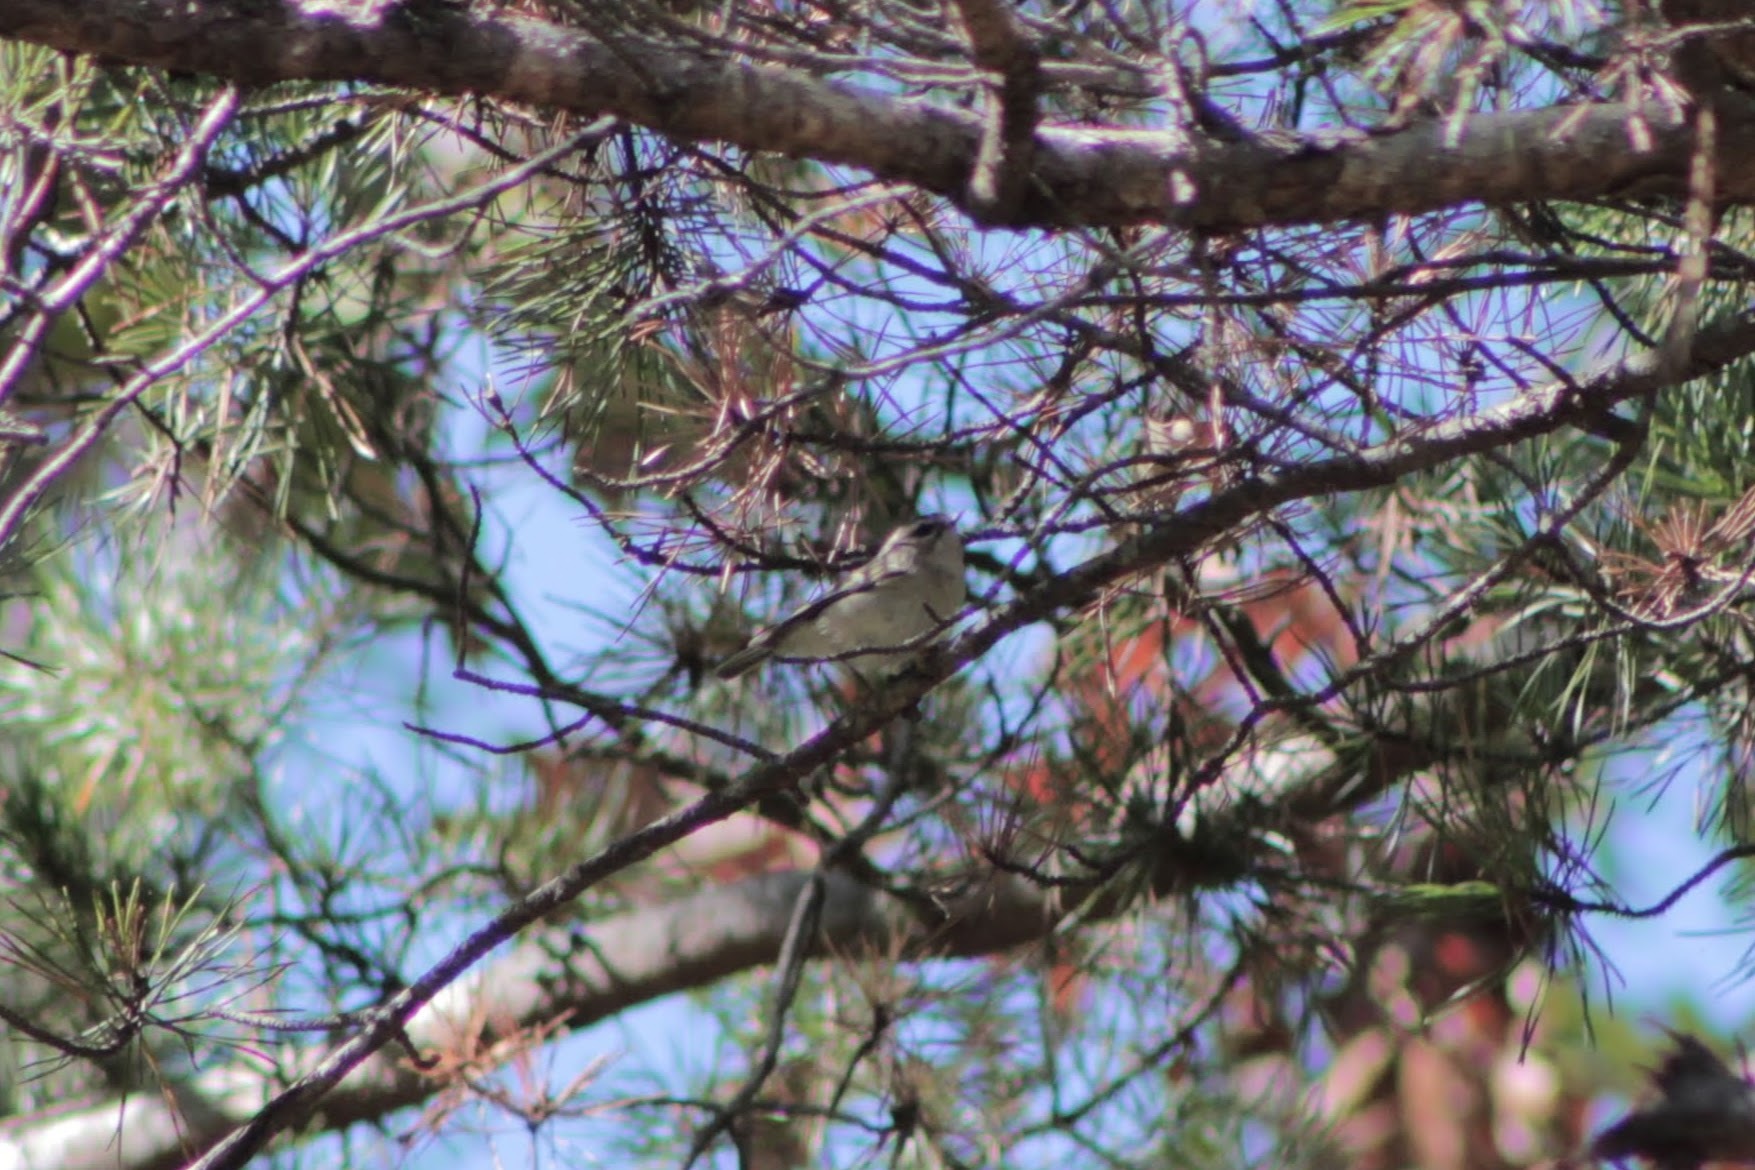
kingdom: Animalia
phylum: Chordata
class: Aves
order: Passeriformes
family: Regulidae
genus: Regulus
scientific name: Regulus satrapa
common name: Golden-crowned kinglet
